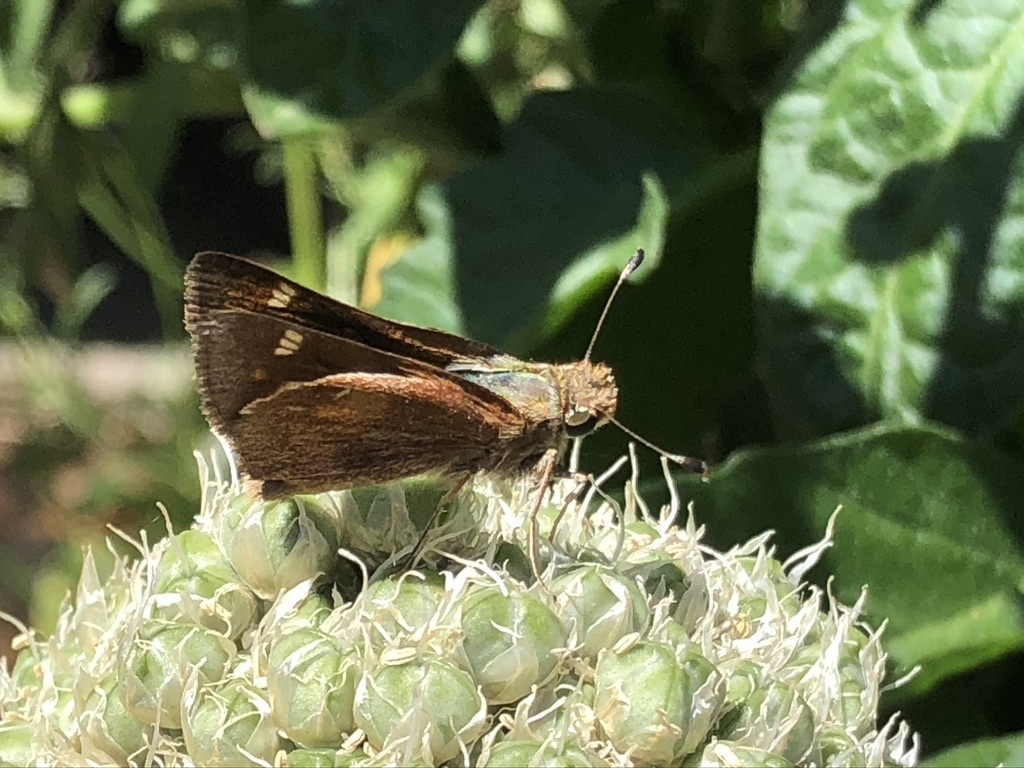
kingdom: Animalia
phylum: Arthropoda
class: Insecta
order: Lepidoptera
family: Hesperiidae
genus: Lon
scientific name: Lon melane
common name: Umber skipper
